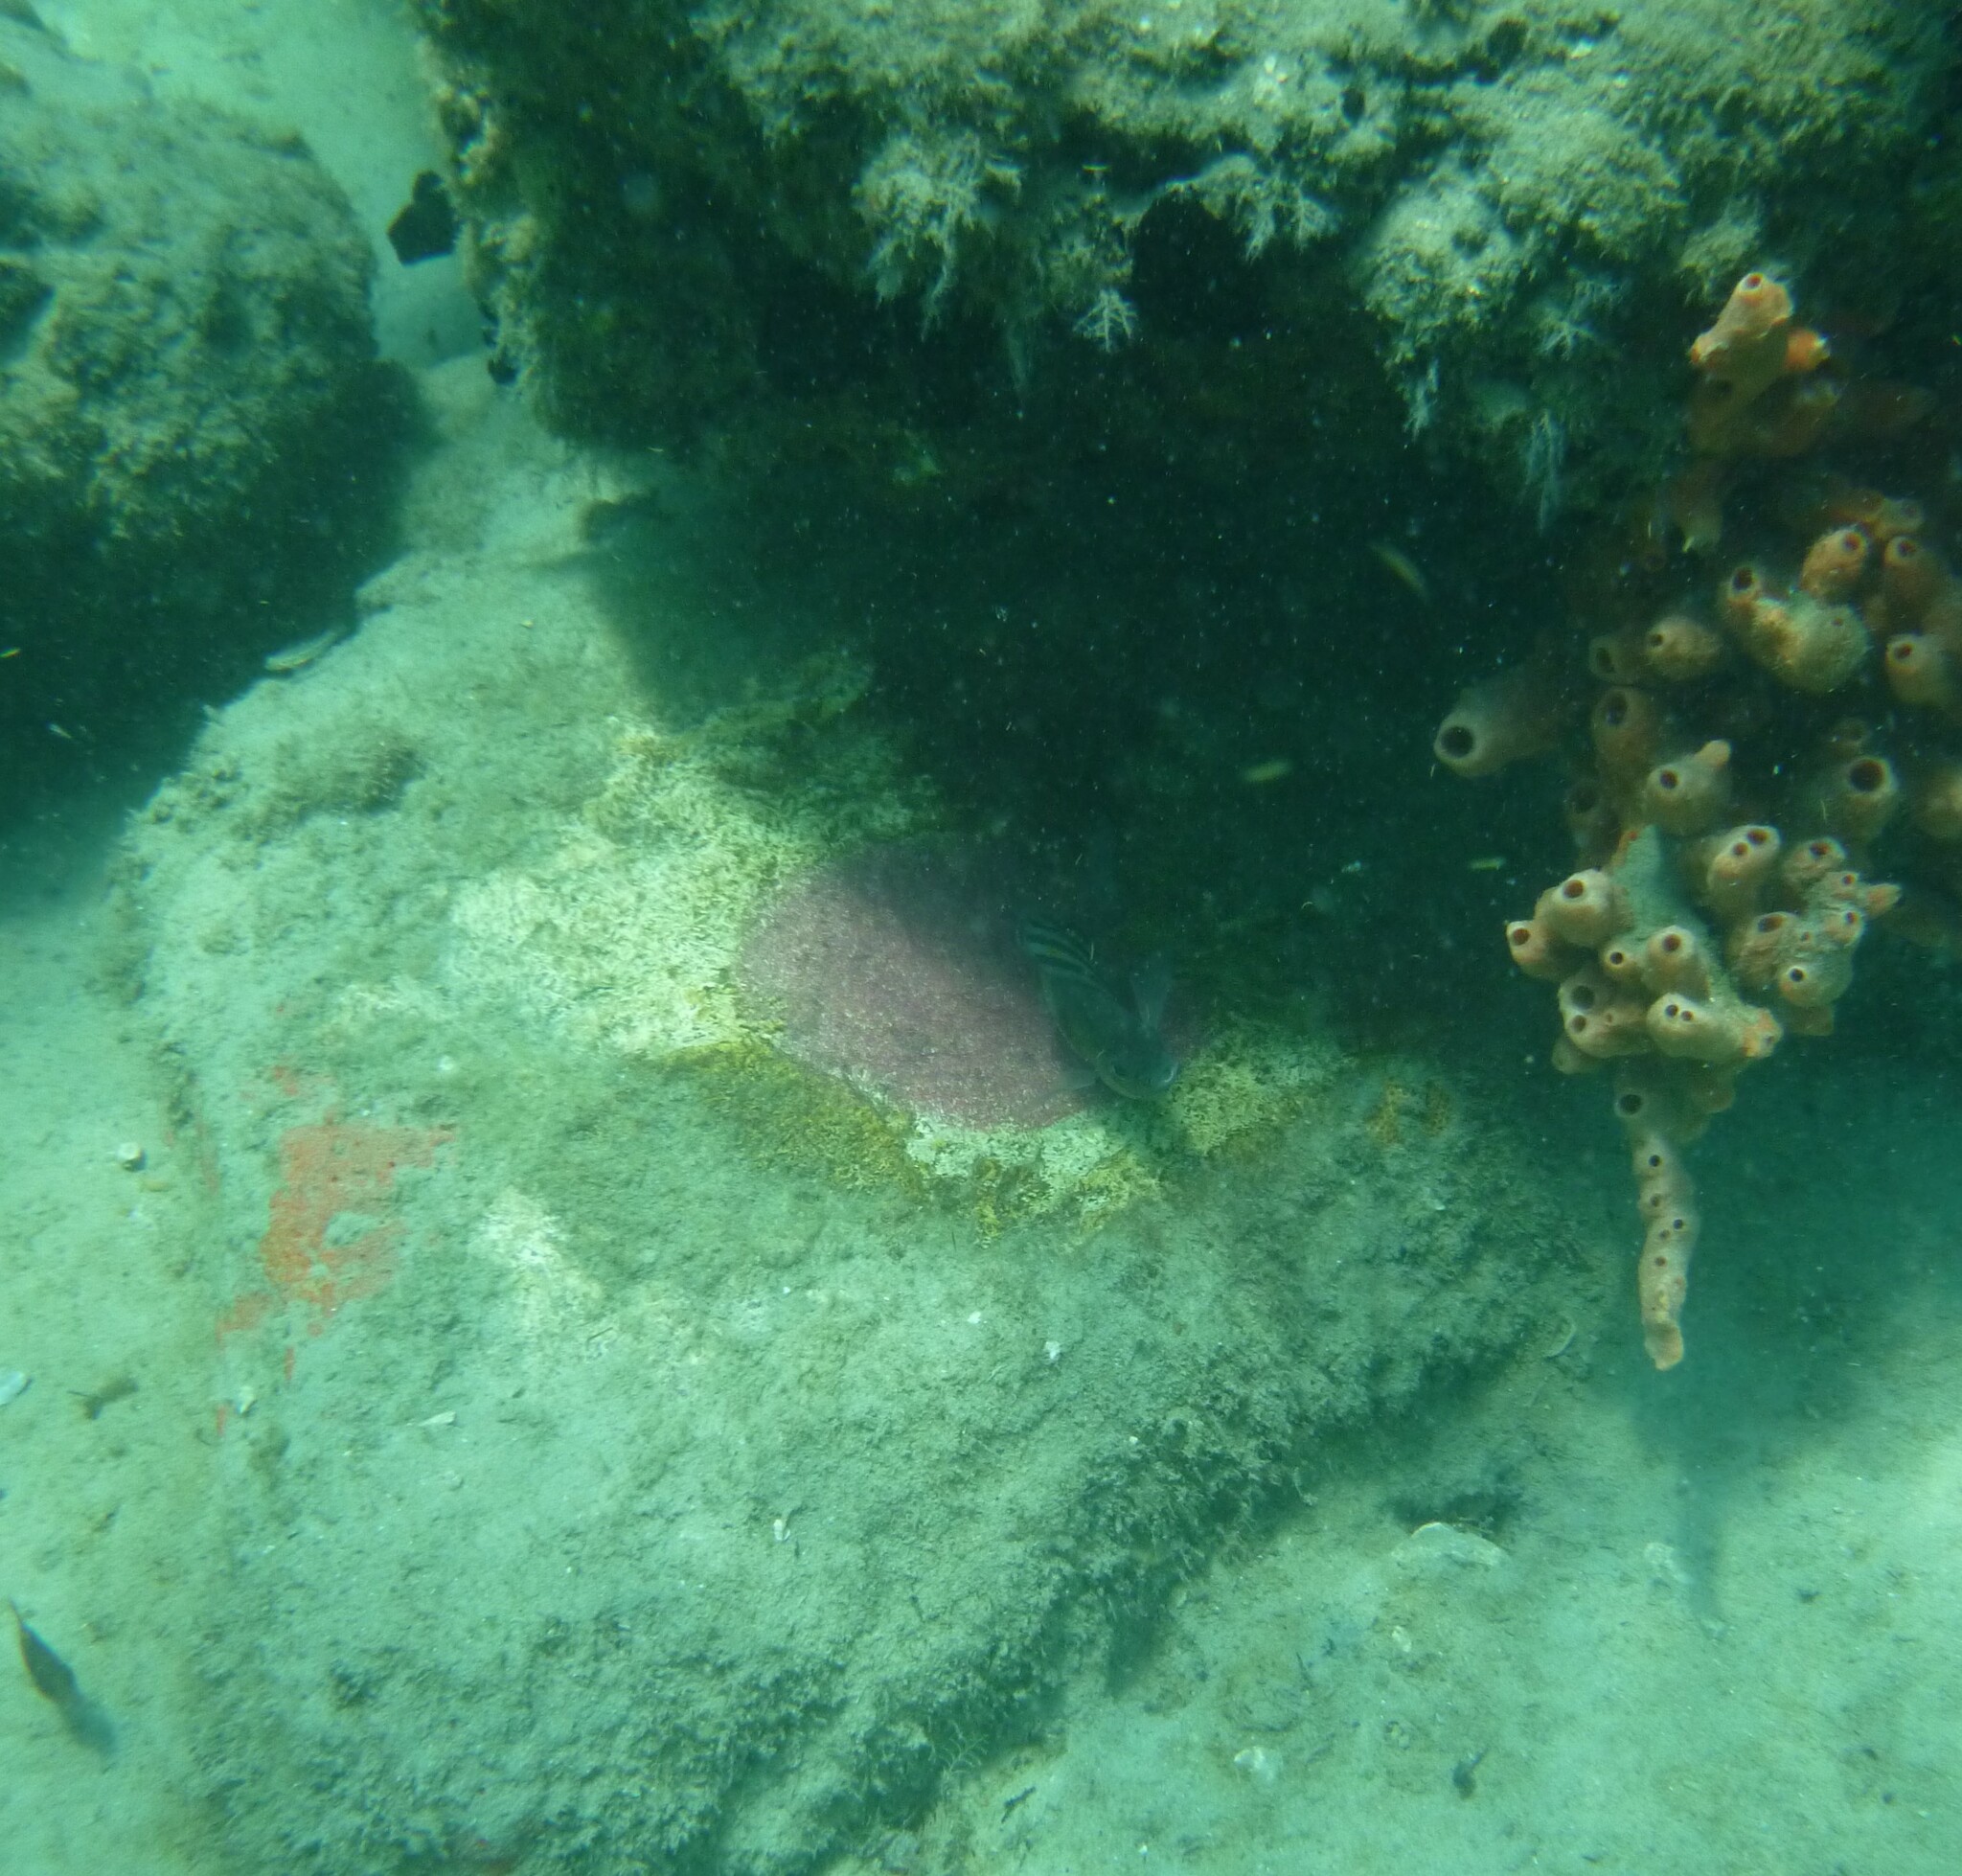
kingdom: Animalia
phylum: Chordata
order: Perciformes
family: Pomacentridae
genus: Abudefduf
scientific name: Abudefduf saxatilis
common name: Sergeant major
